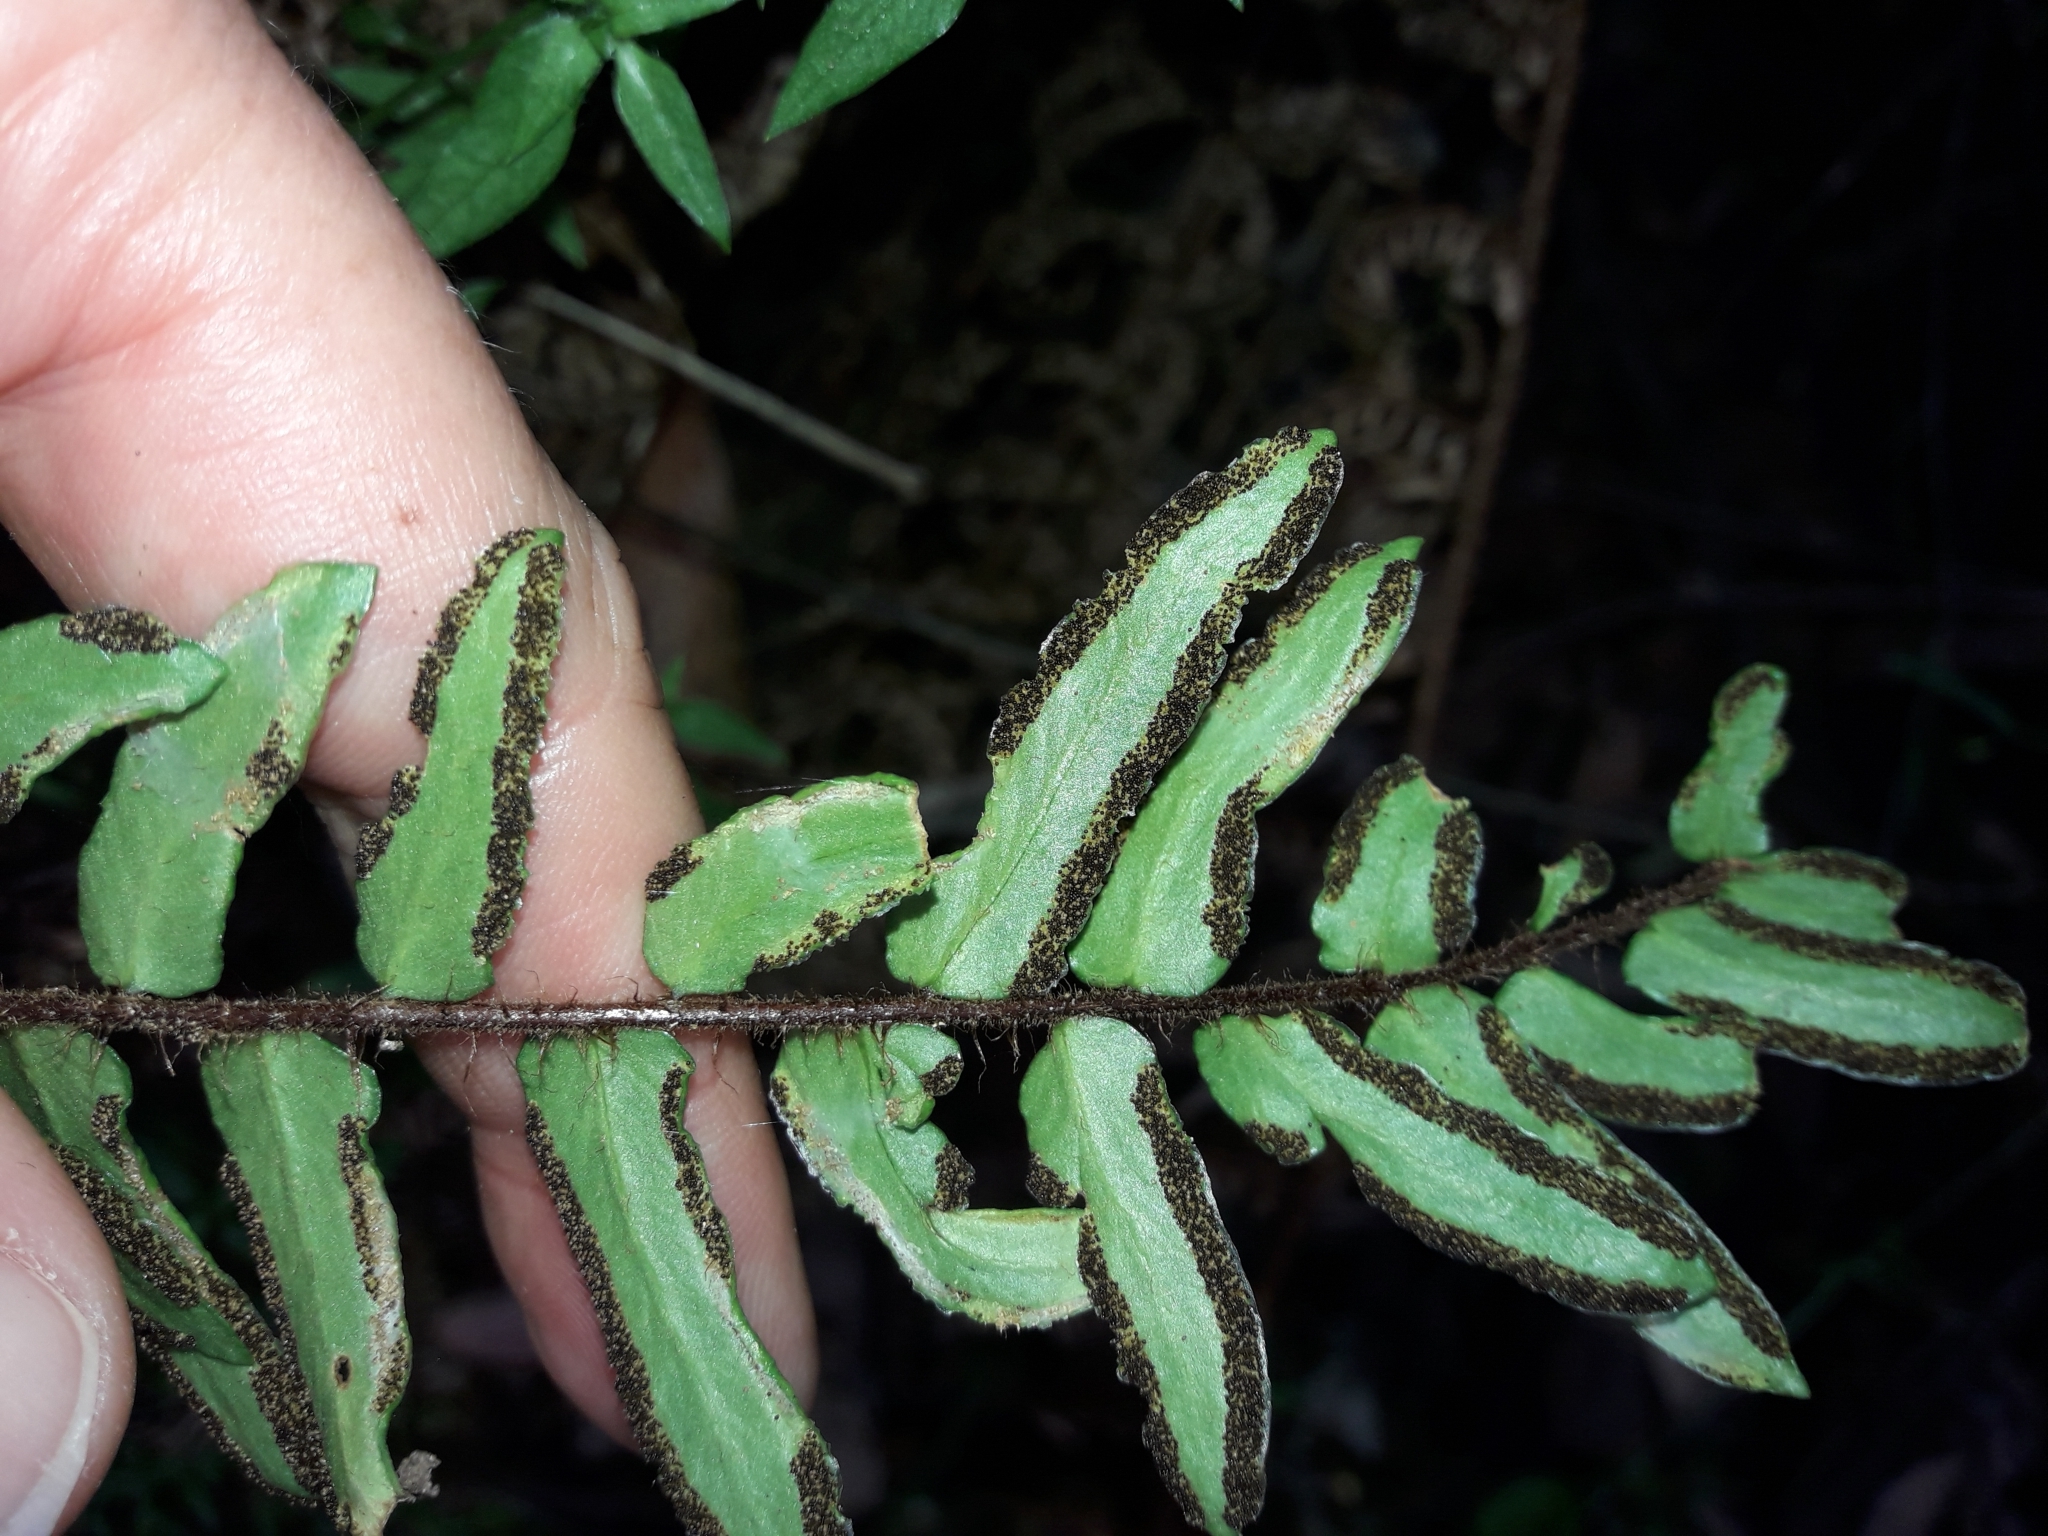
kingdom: Plantae
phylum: Tracheophyta
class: Polypodiopsida
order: Polypodiales
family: Pteridaceae
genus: Pellaea
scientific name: Pellaea falcata
